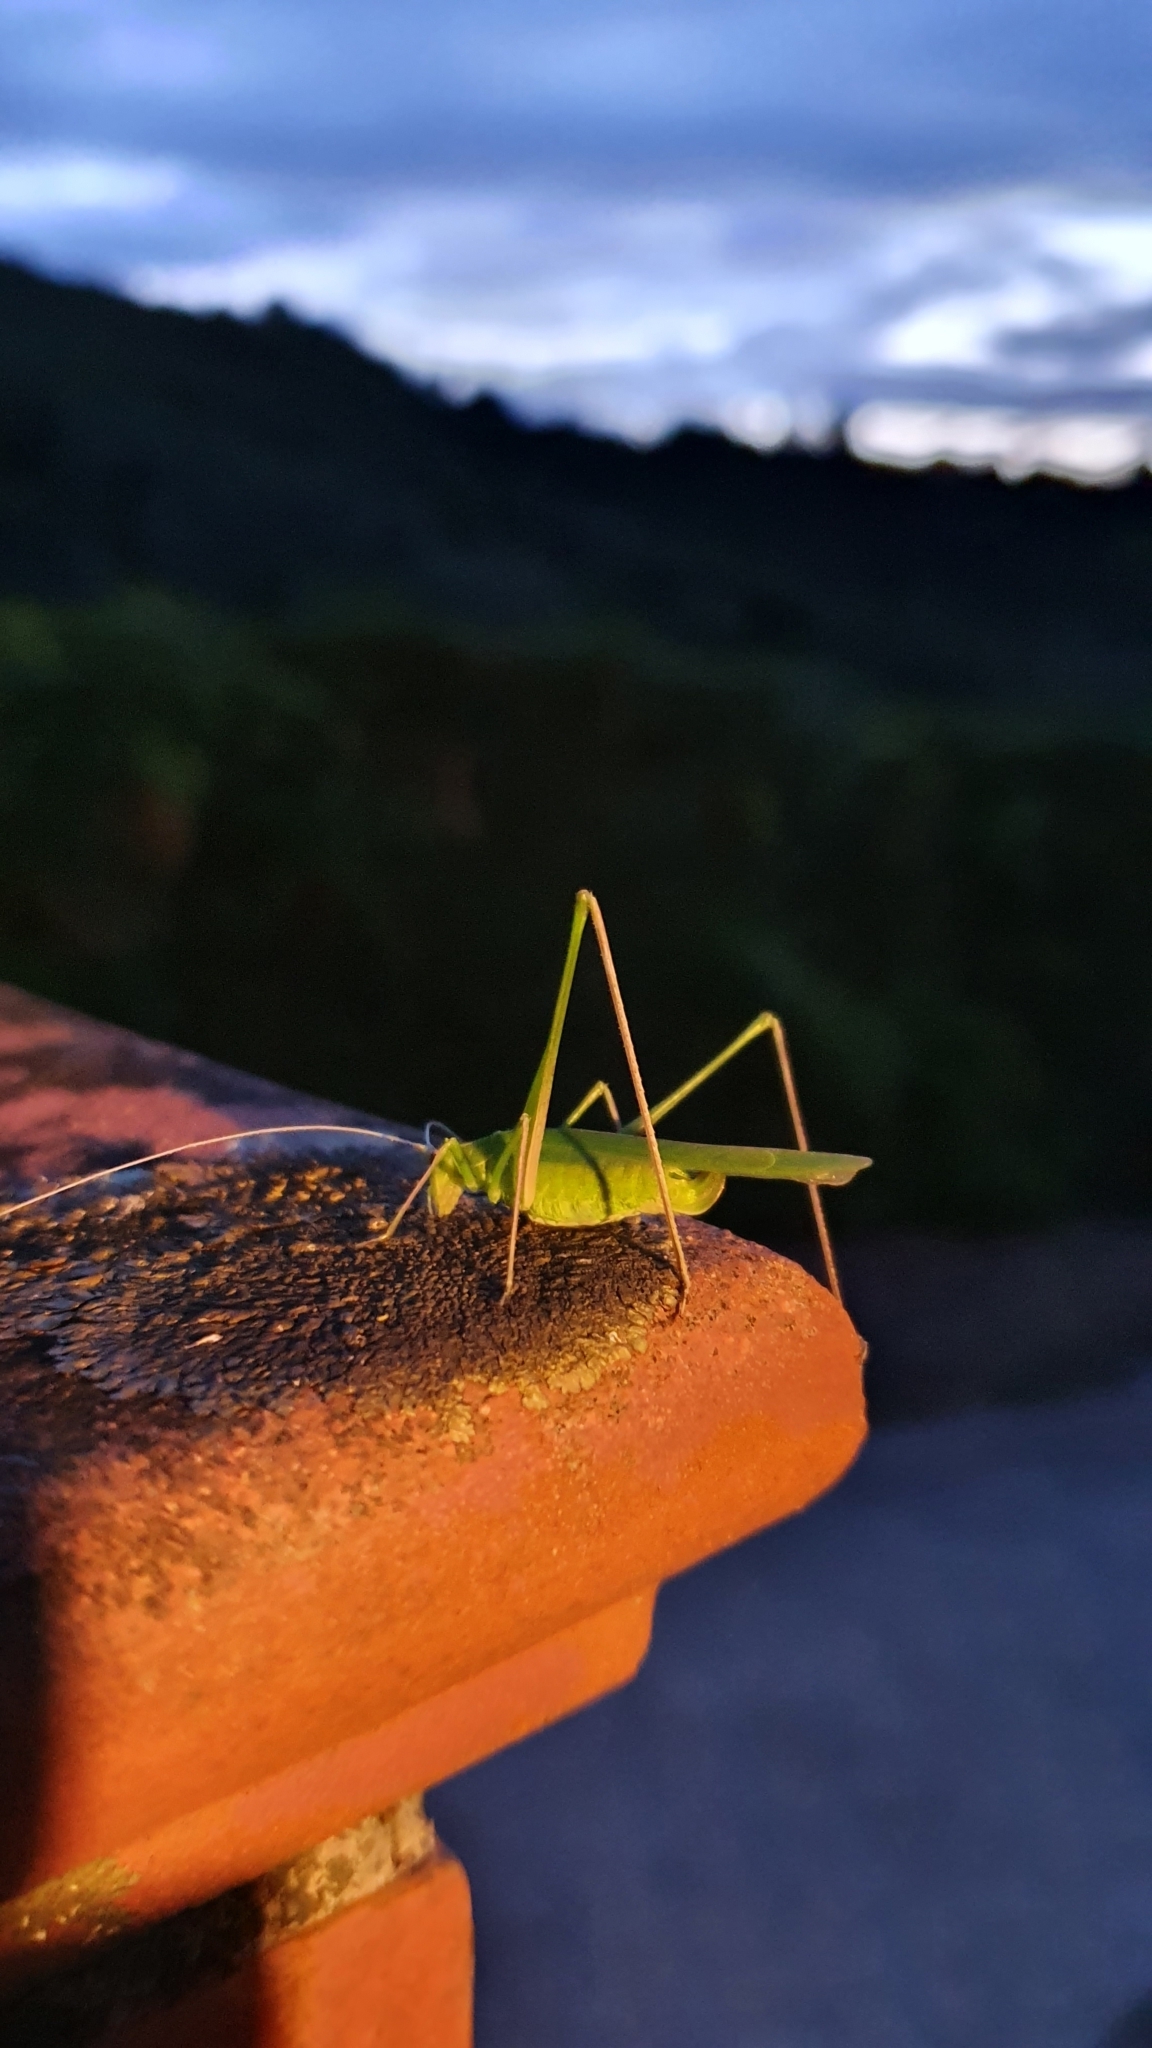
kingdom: Animalia
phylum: Arthropoda
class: Insecta
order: Orthoptera
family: Tettigoniidae
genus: Tylopsis
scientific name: Tylopsis lilifolia
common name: Lily bush-cricket
